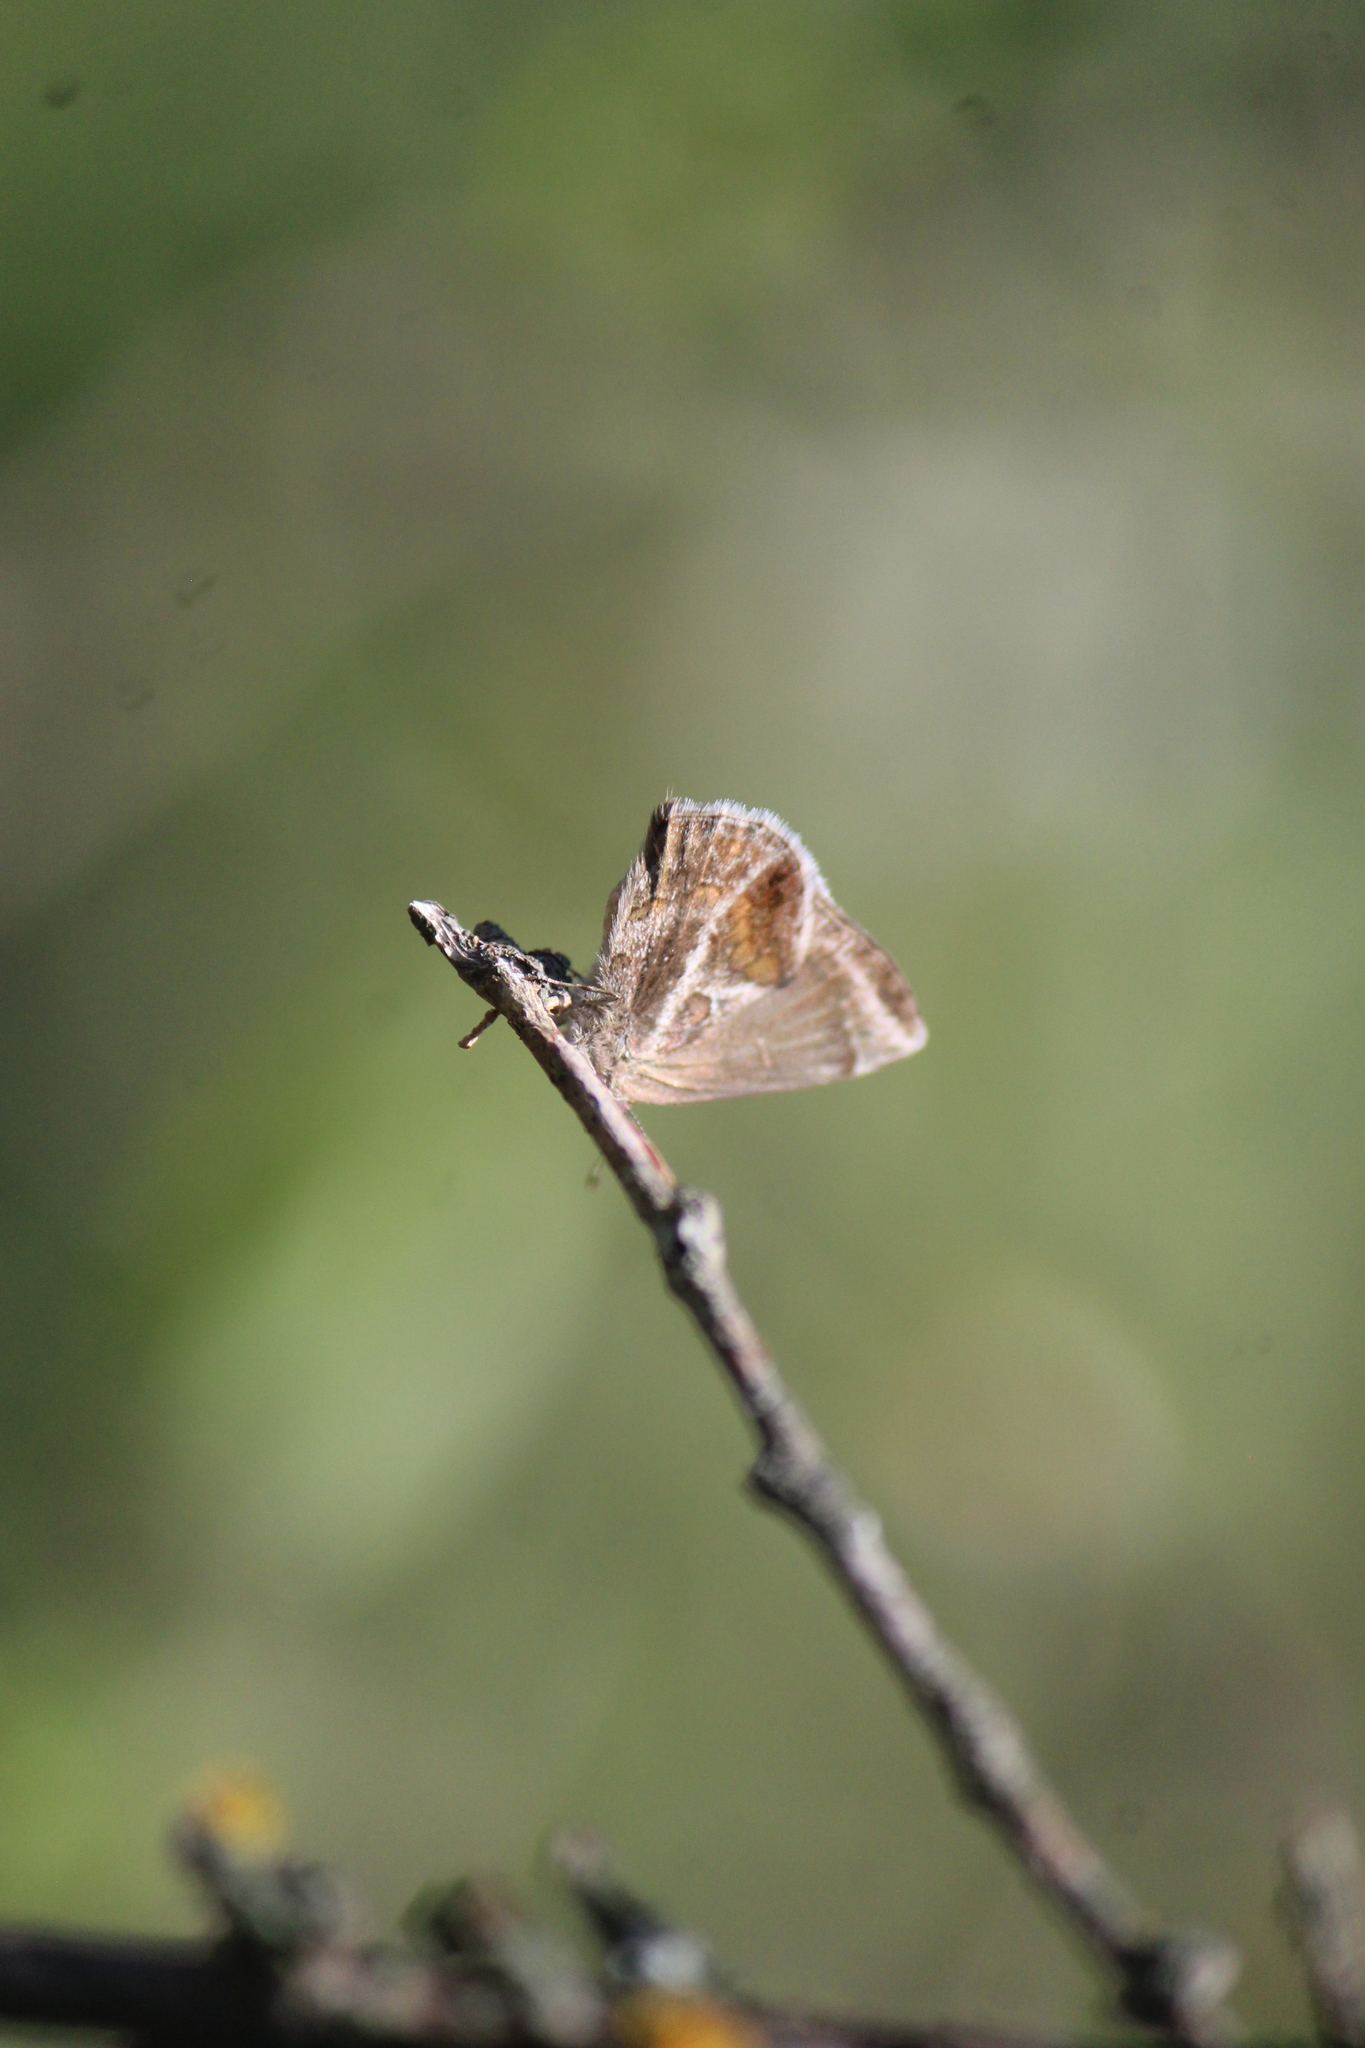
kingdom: Animalia
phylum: Arthropoda
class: Insecta
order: Lepidoptera
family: Lycaenidae
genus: Strymon
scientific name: Strymon bazochii
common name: Lantana scrub-hairstreak
